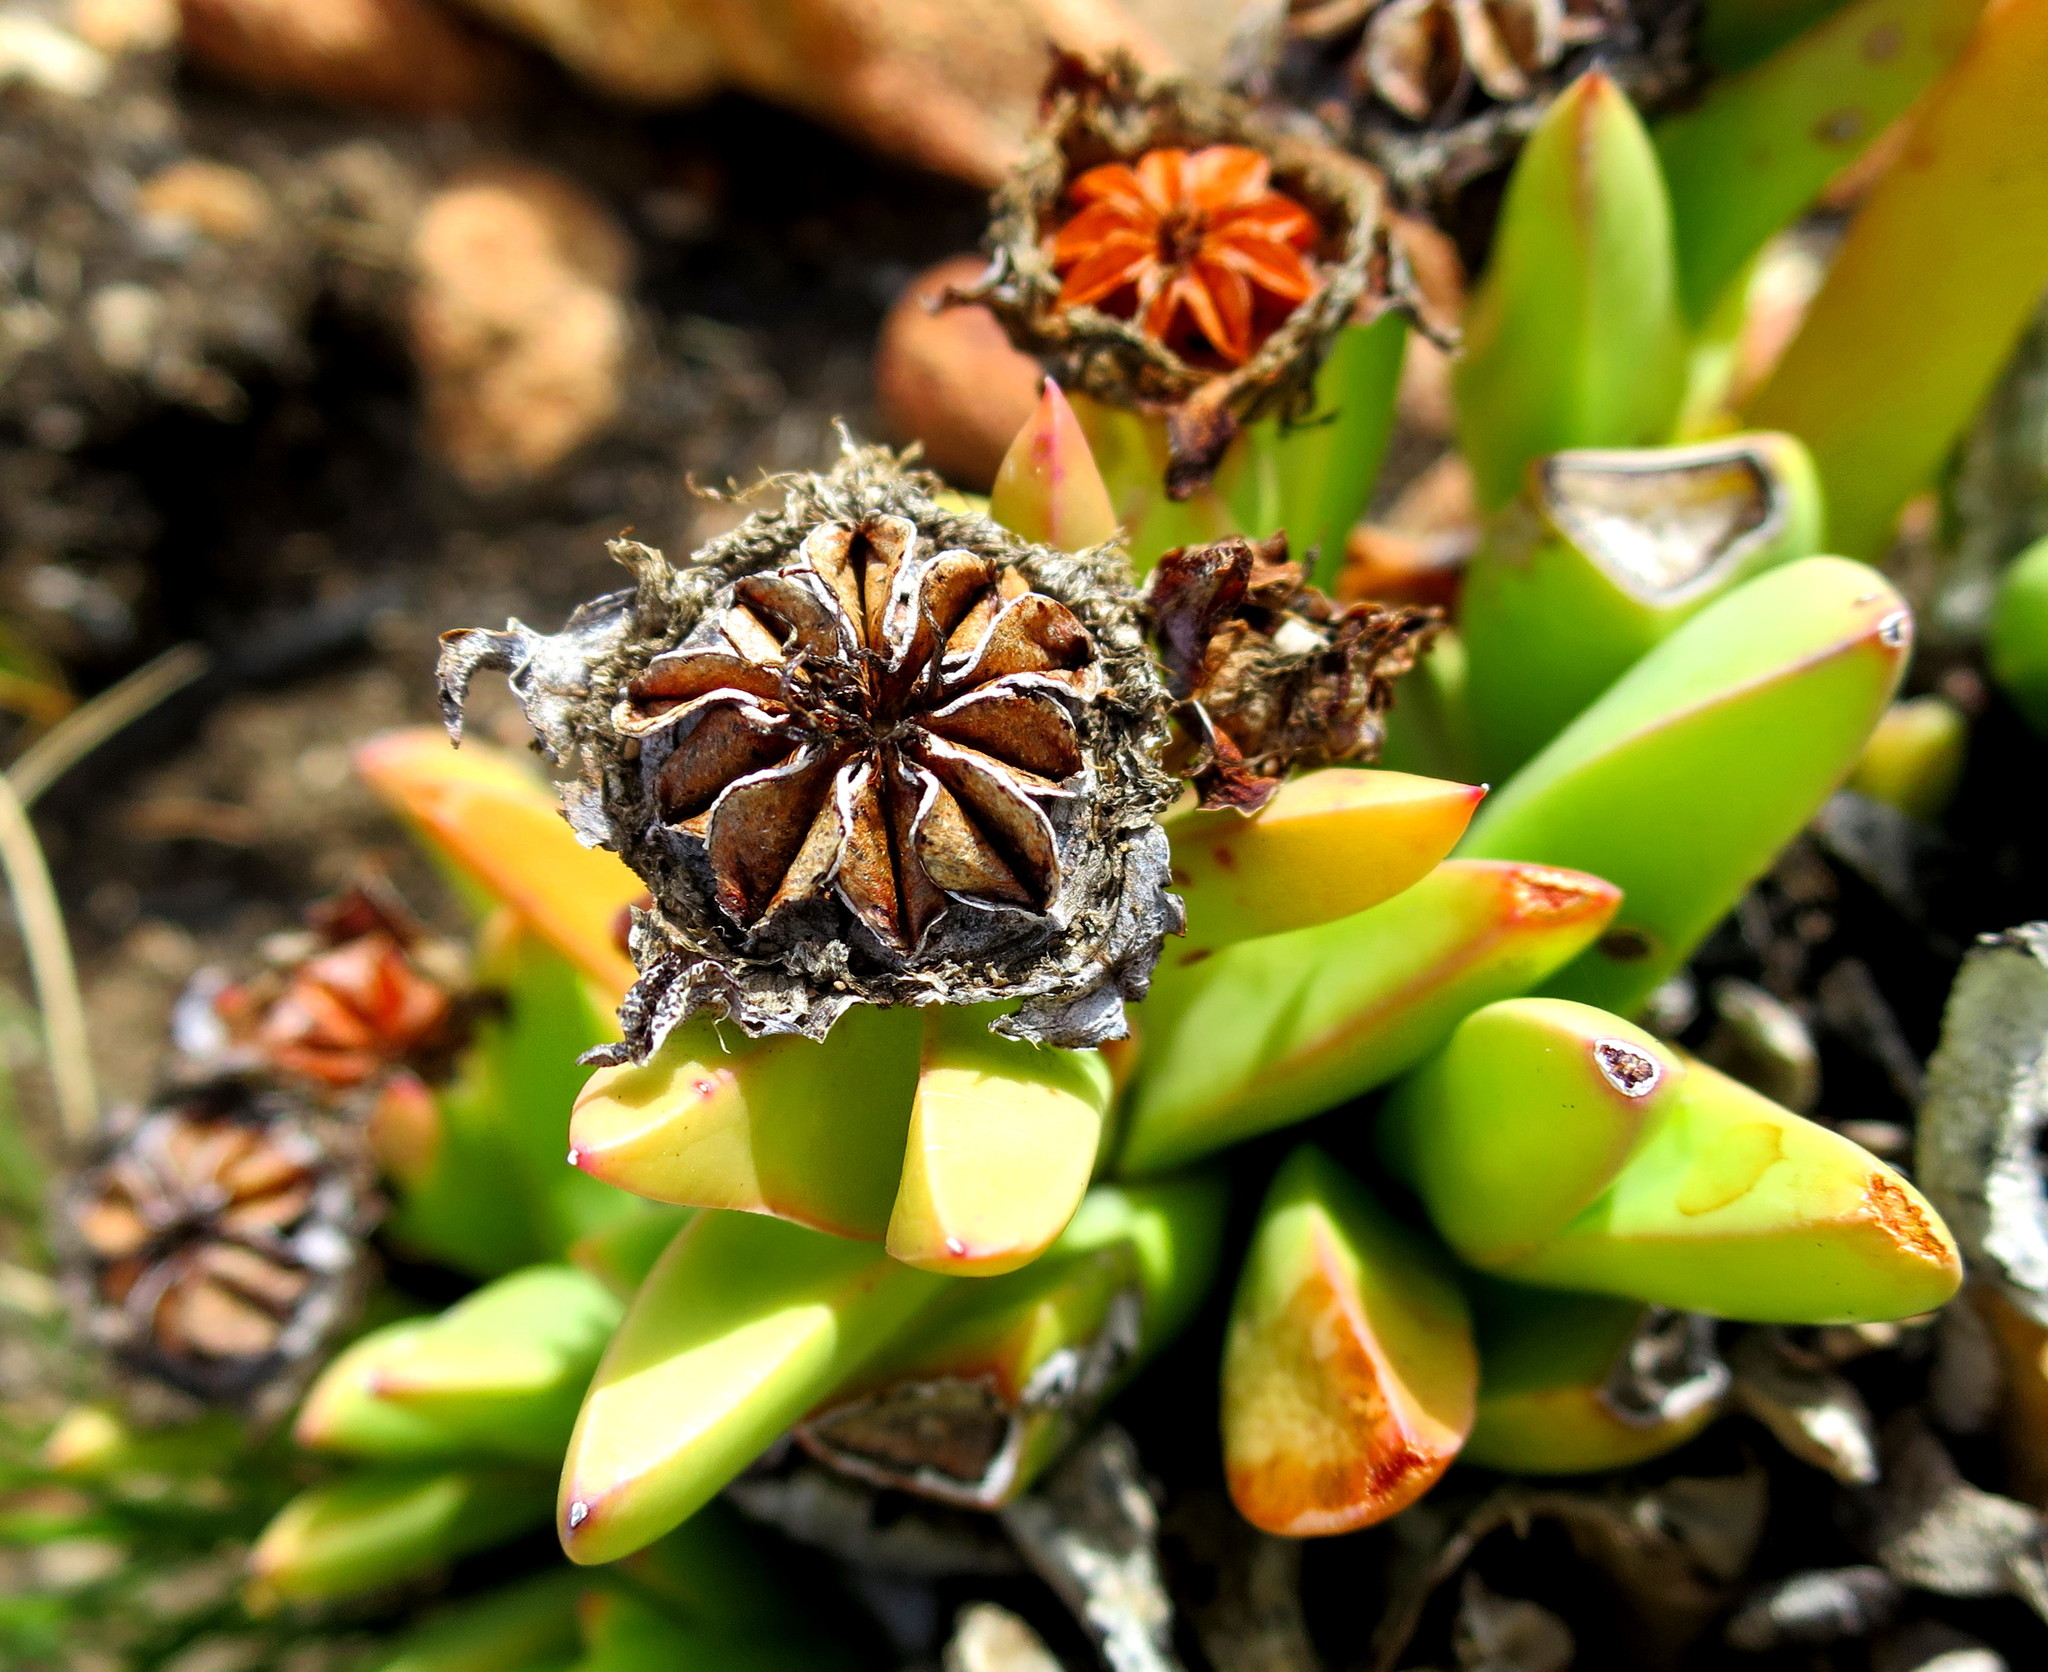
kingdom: Plantae
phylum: Tracheophyta
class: Magnoliopsida
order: Caryophyllales
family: Aizoaceae
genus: Machairophyllum
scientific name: Machairophyllum albidum
